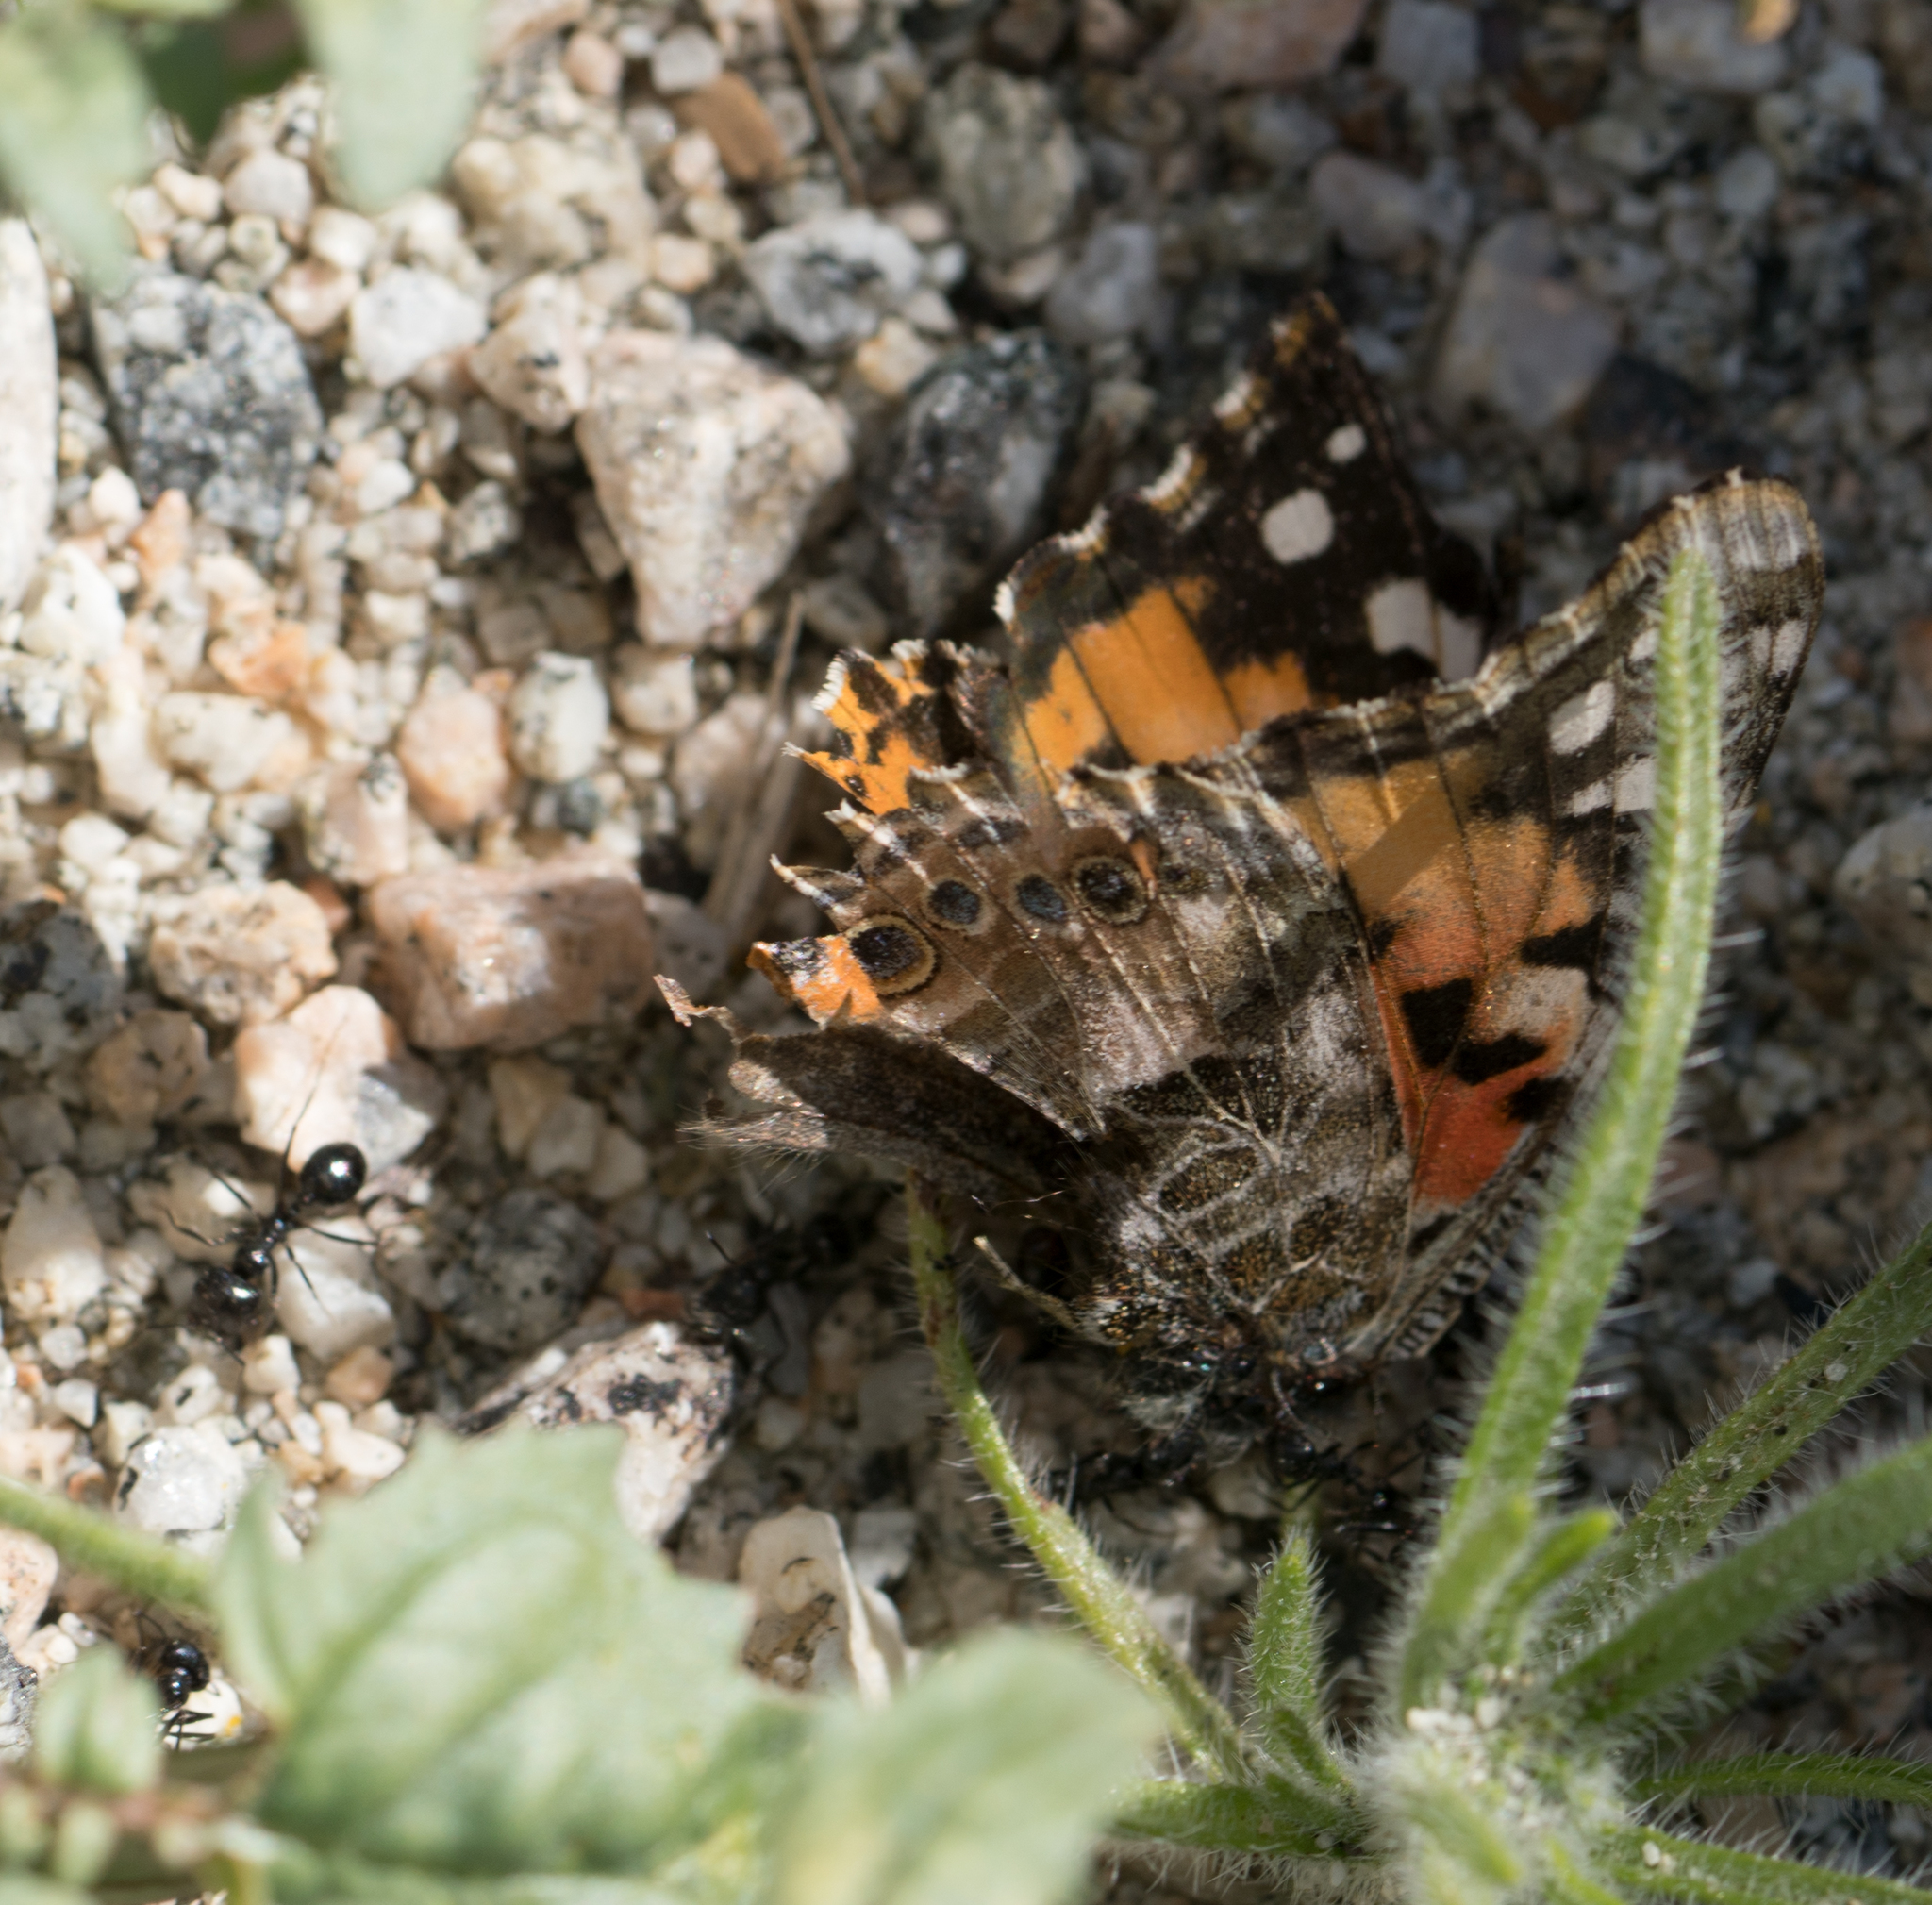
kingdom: Animalia
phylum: Arthropoda
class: Insecta
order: Lepidoptera
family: Nymphalidae
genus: Vanessa
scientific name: Vanessa cardui
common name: Painted lady
